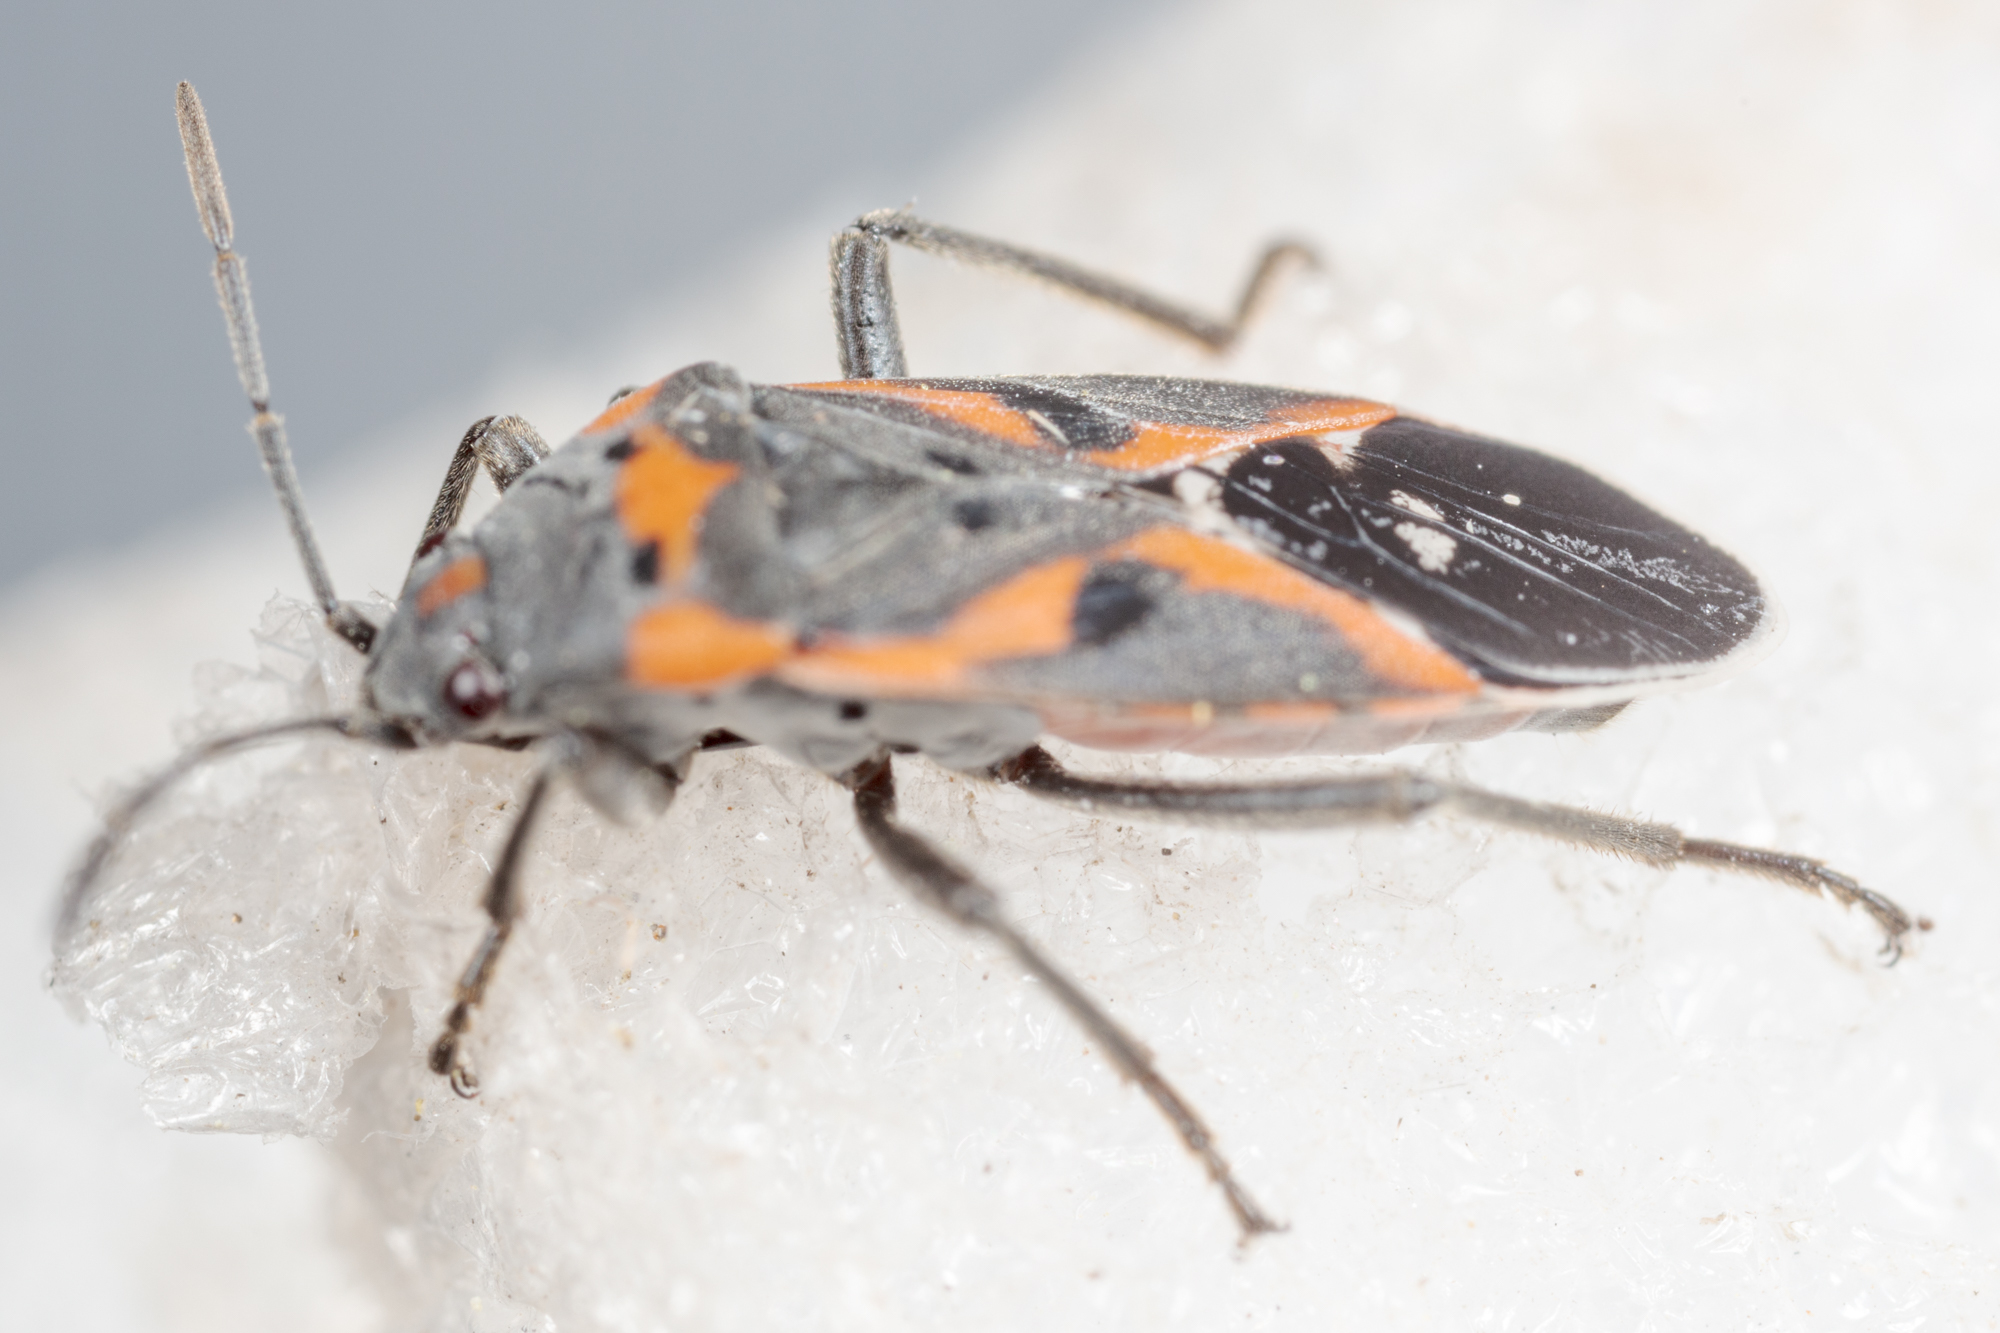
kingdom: Animalia
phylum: Arthropoda
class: Insecta
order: Hemiptera
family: Lygaeidae
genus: Lygaeus
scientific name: Lygaeus kalmii
